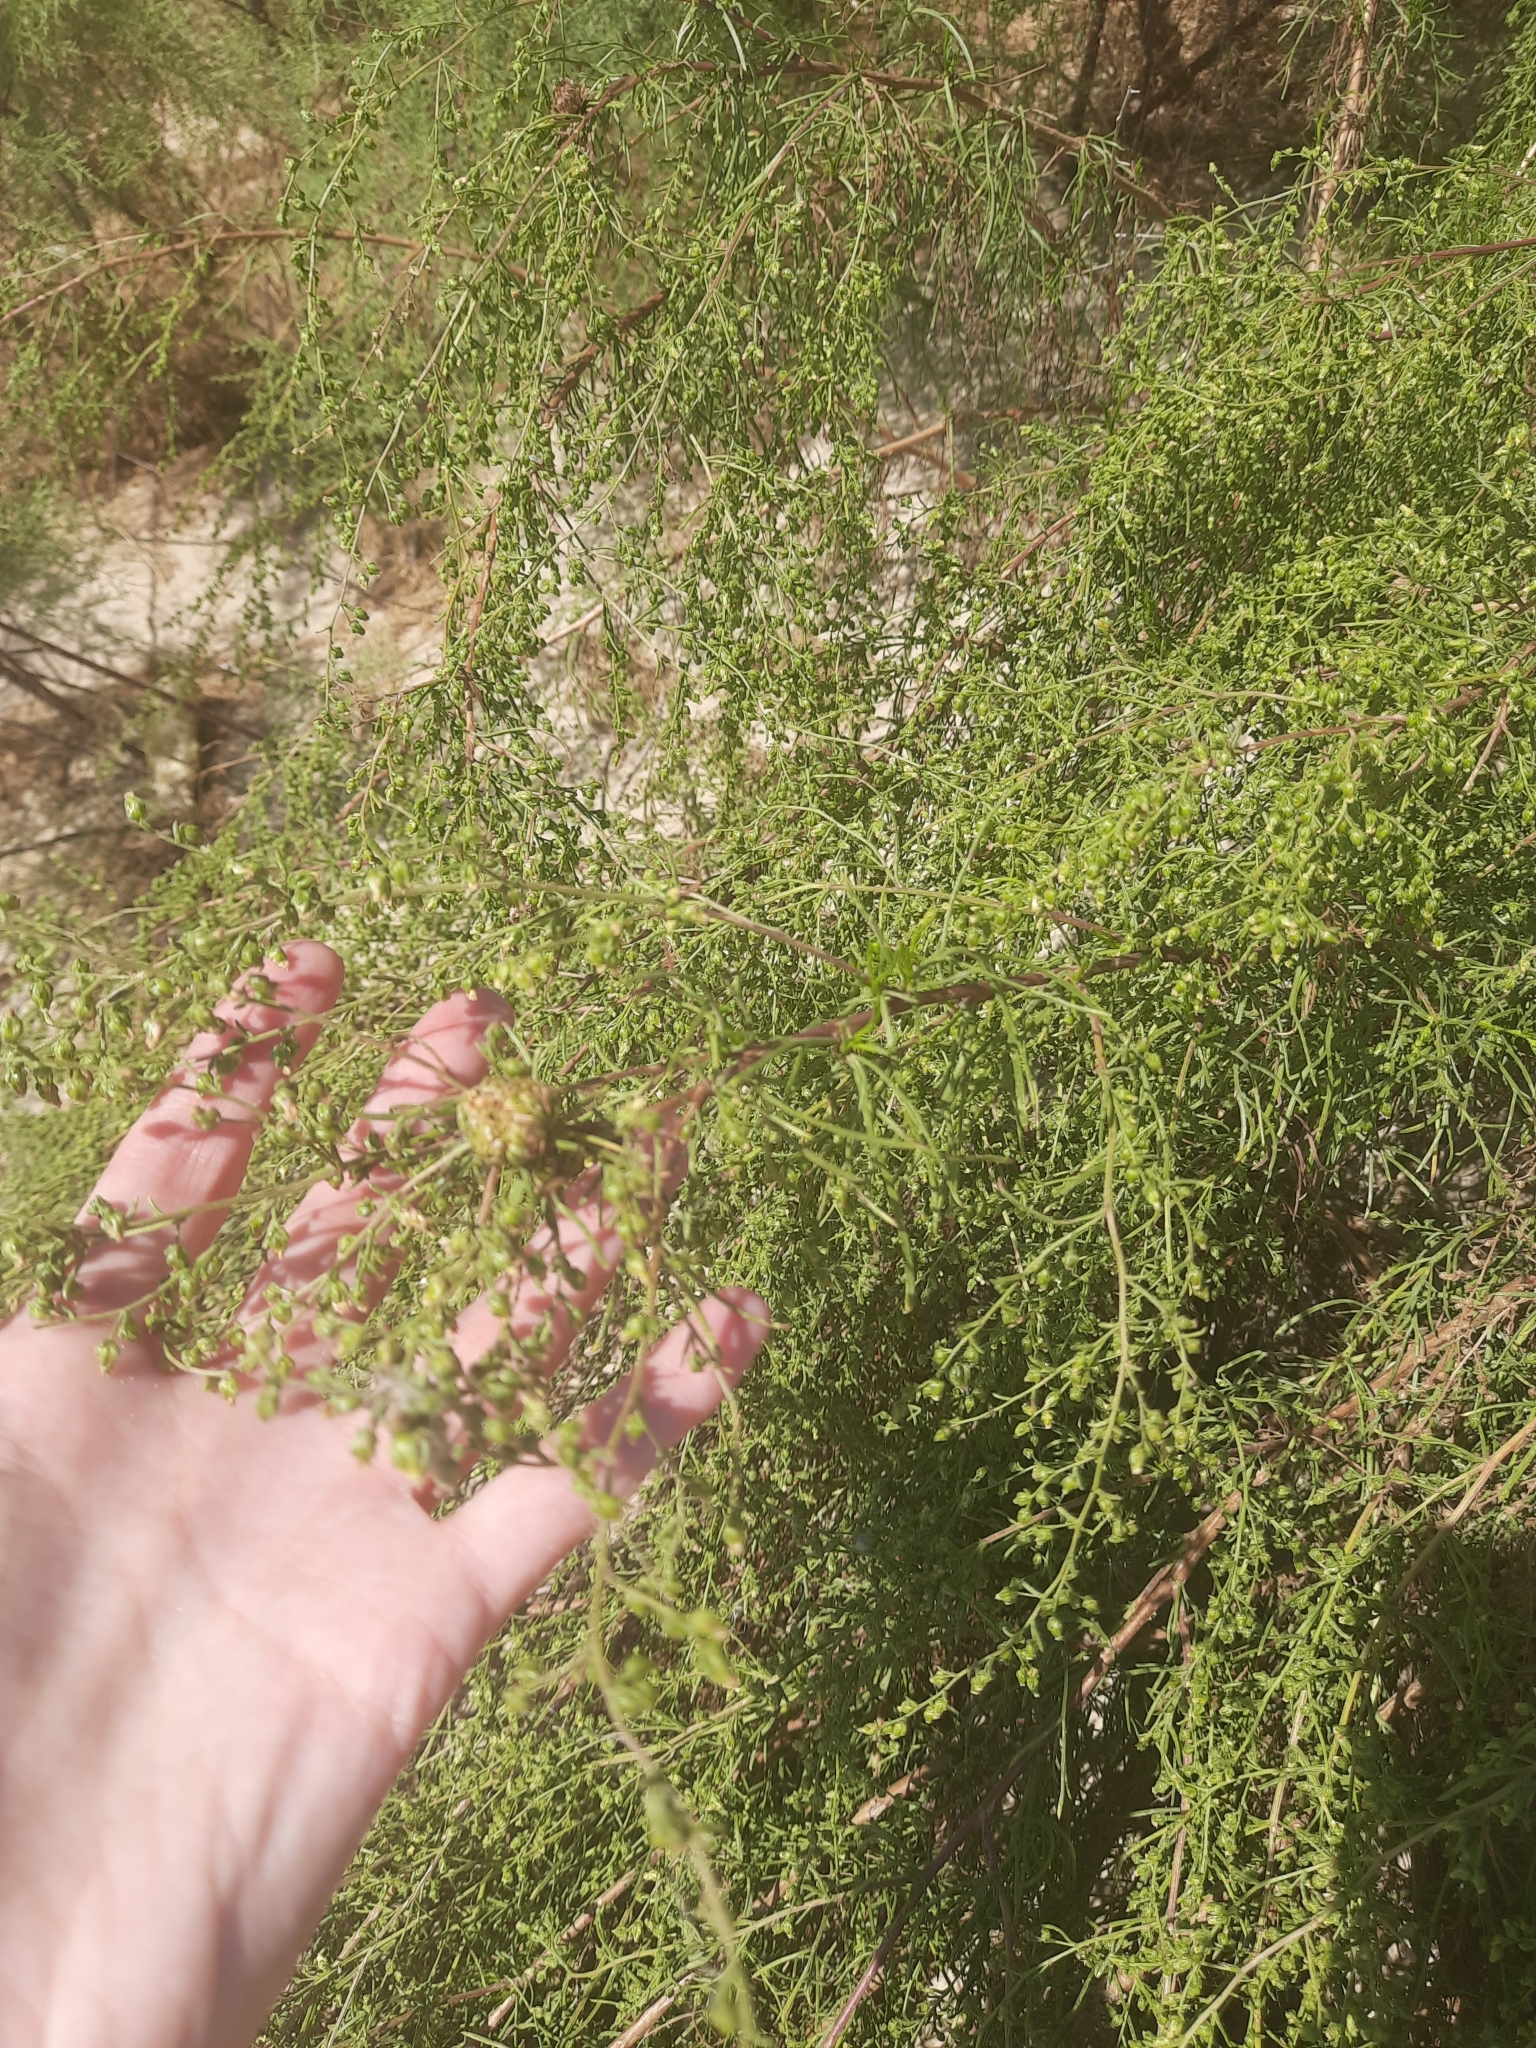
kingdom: Plantae
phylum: Tracheophyta
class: Magnoliopsida
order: Asterales
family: Asteraceae
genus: Artemisia
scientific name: Artemisia arenaria
